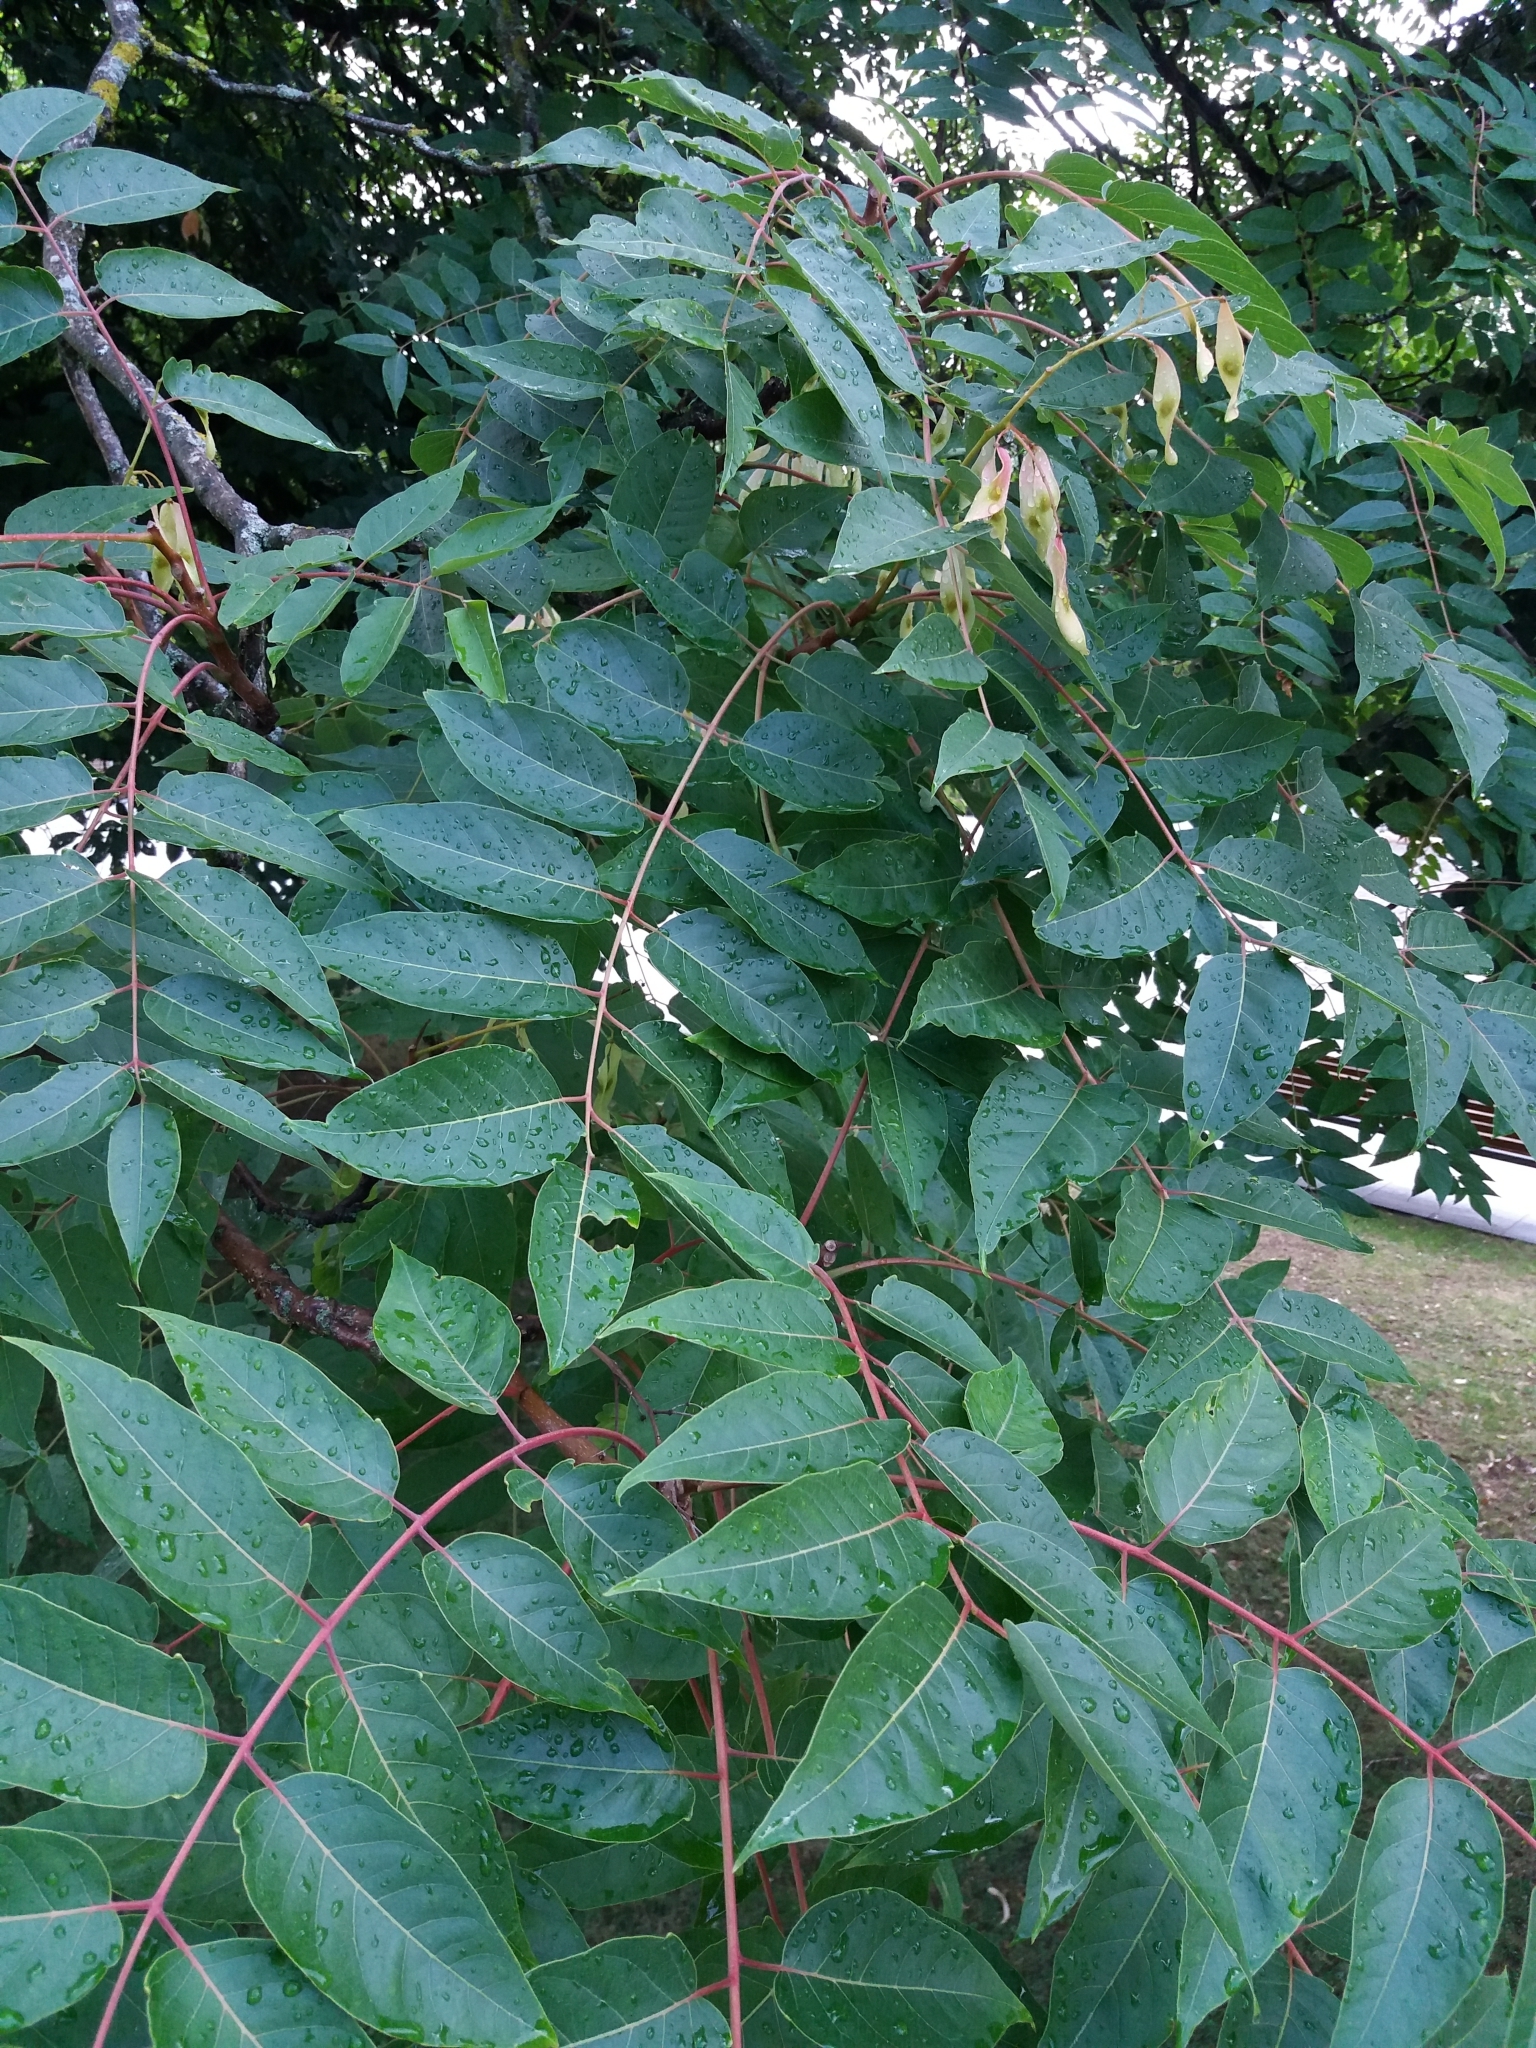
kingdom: Plantae
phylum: Tracheophyta
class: Magnoliopsida
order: Sapindales
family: Simaroubaceae
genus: Ailanthus
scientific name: Ailanthus altissima
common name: Tree-of-heaven
